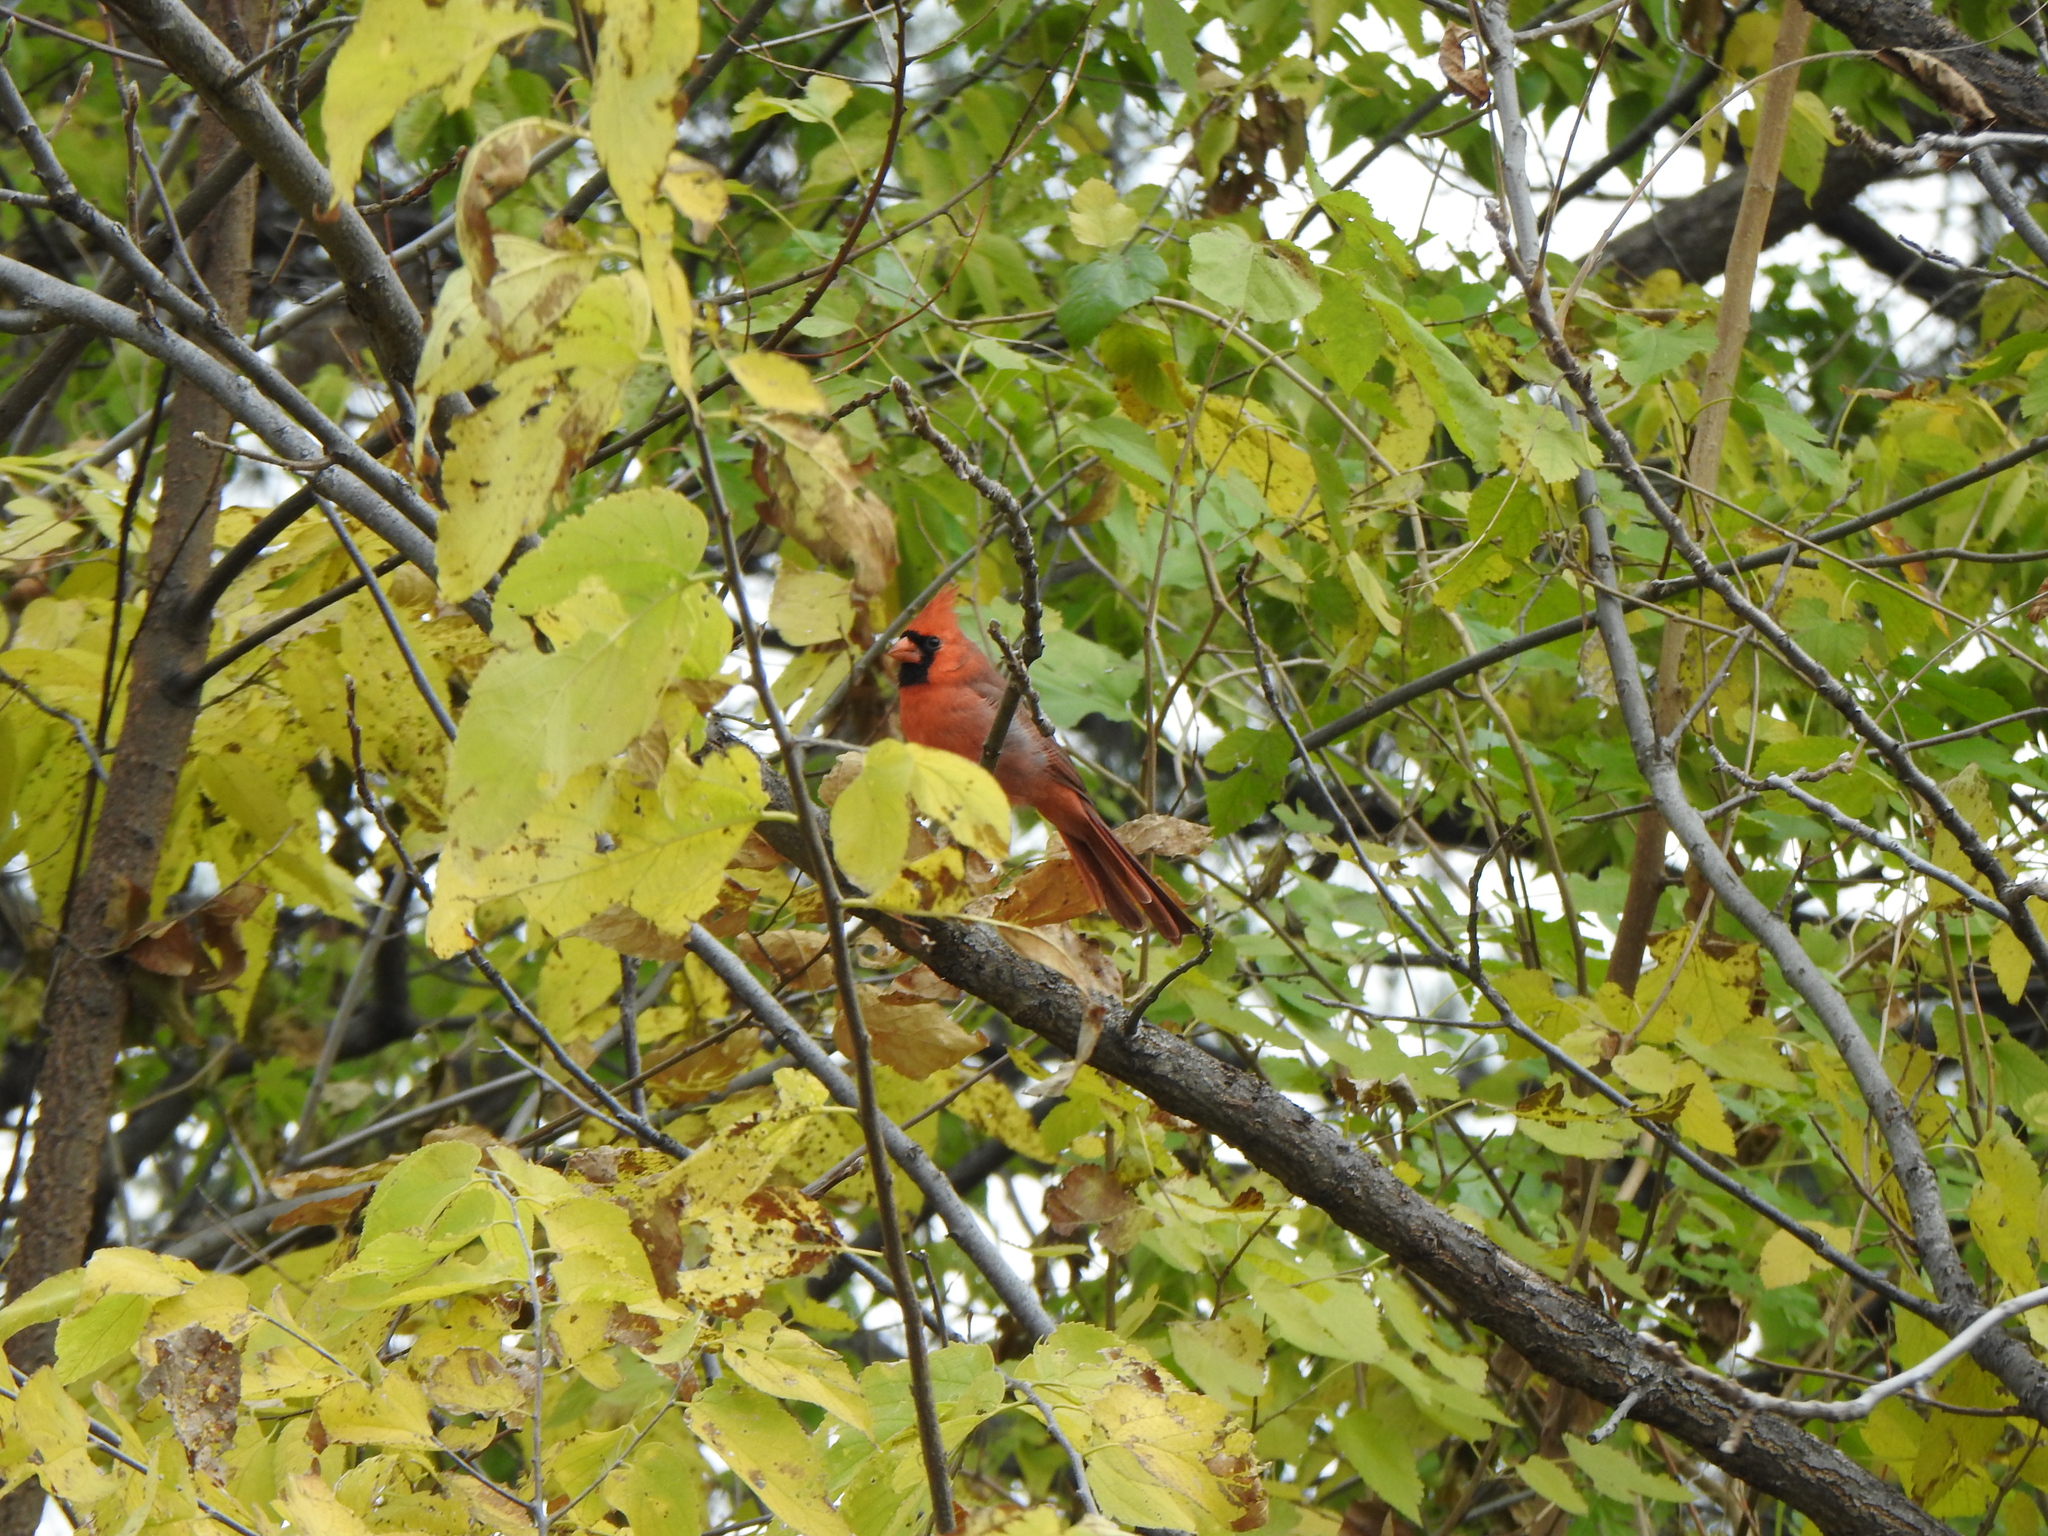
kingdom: Animalia
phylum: Chordata
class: Aves
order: Passeriformes
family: Cardinalidae
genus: Cardinalis
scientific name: Cardinalis cardinalis
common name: Northern cardinal
